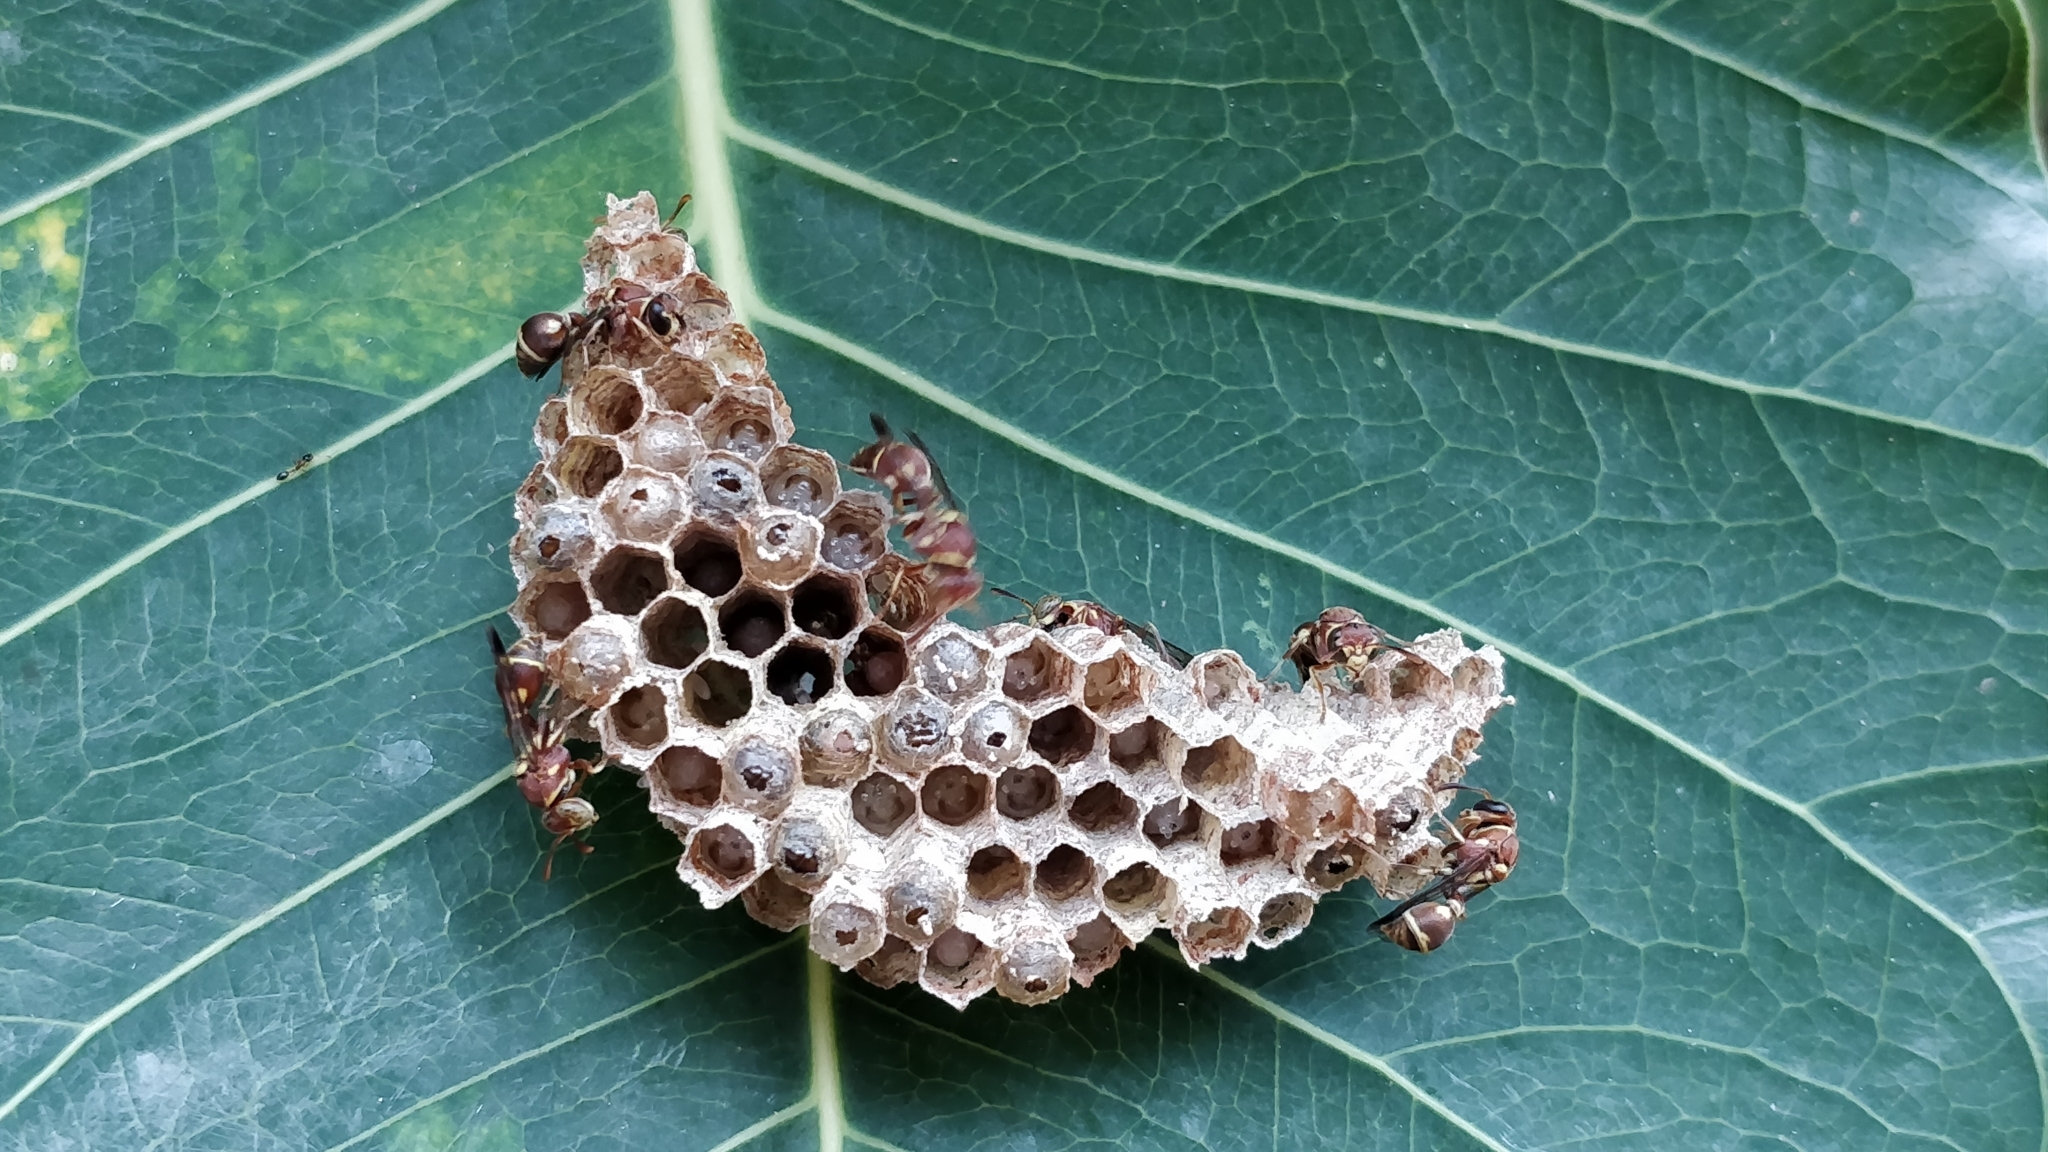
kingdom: Animalia
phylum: Arthropoda
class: Insecta
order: Hymenoptera
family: Vespidae
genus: Ropalidia
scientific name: Ropalidia cyathiformis
